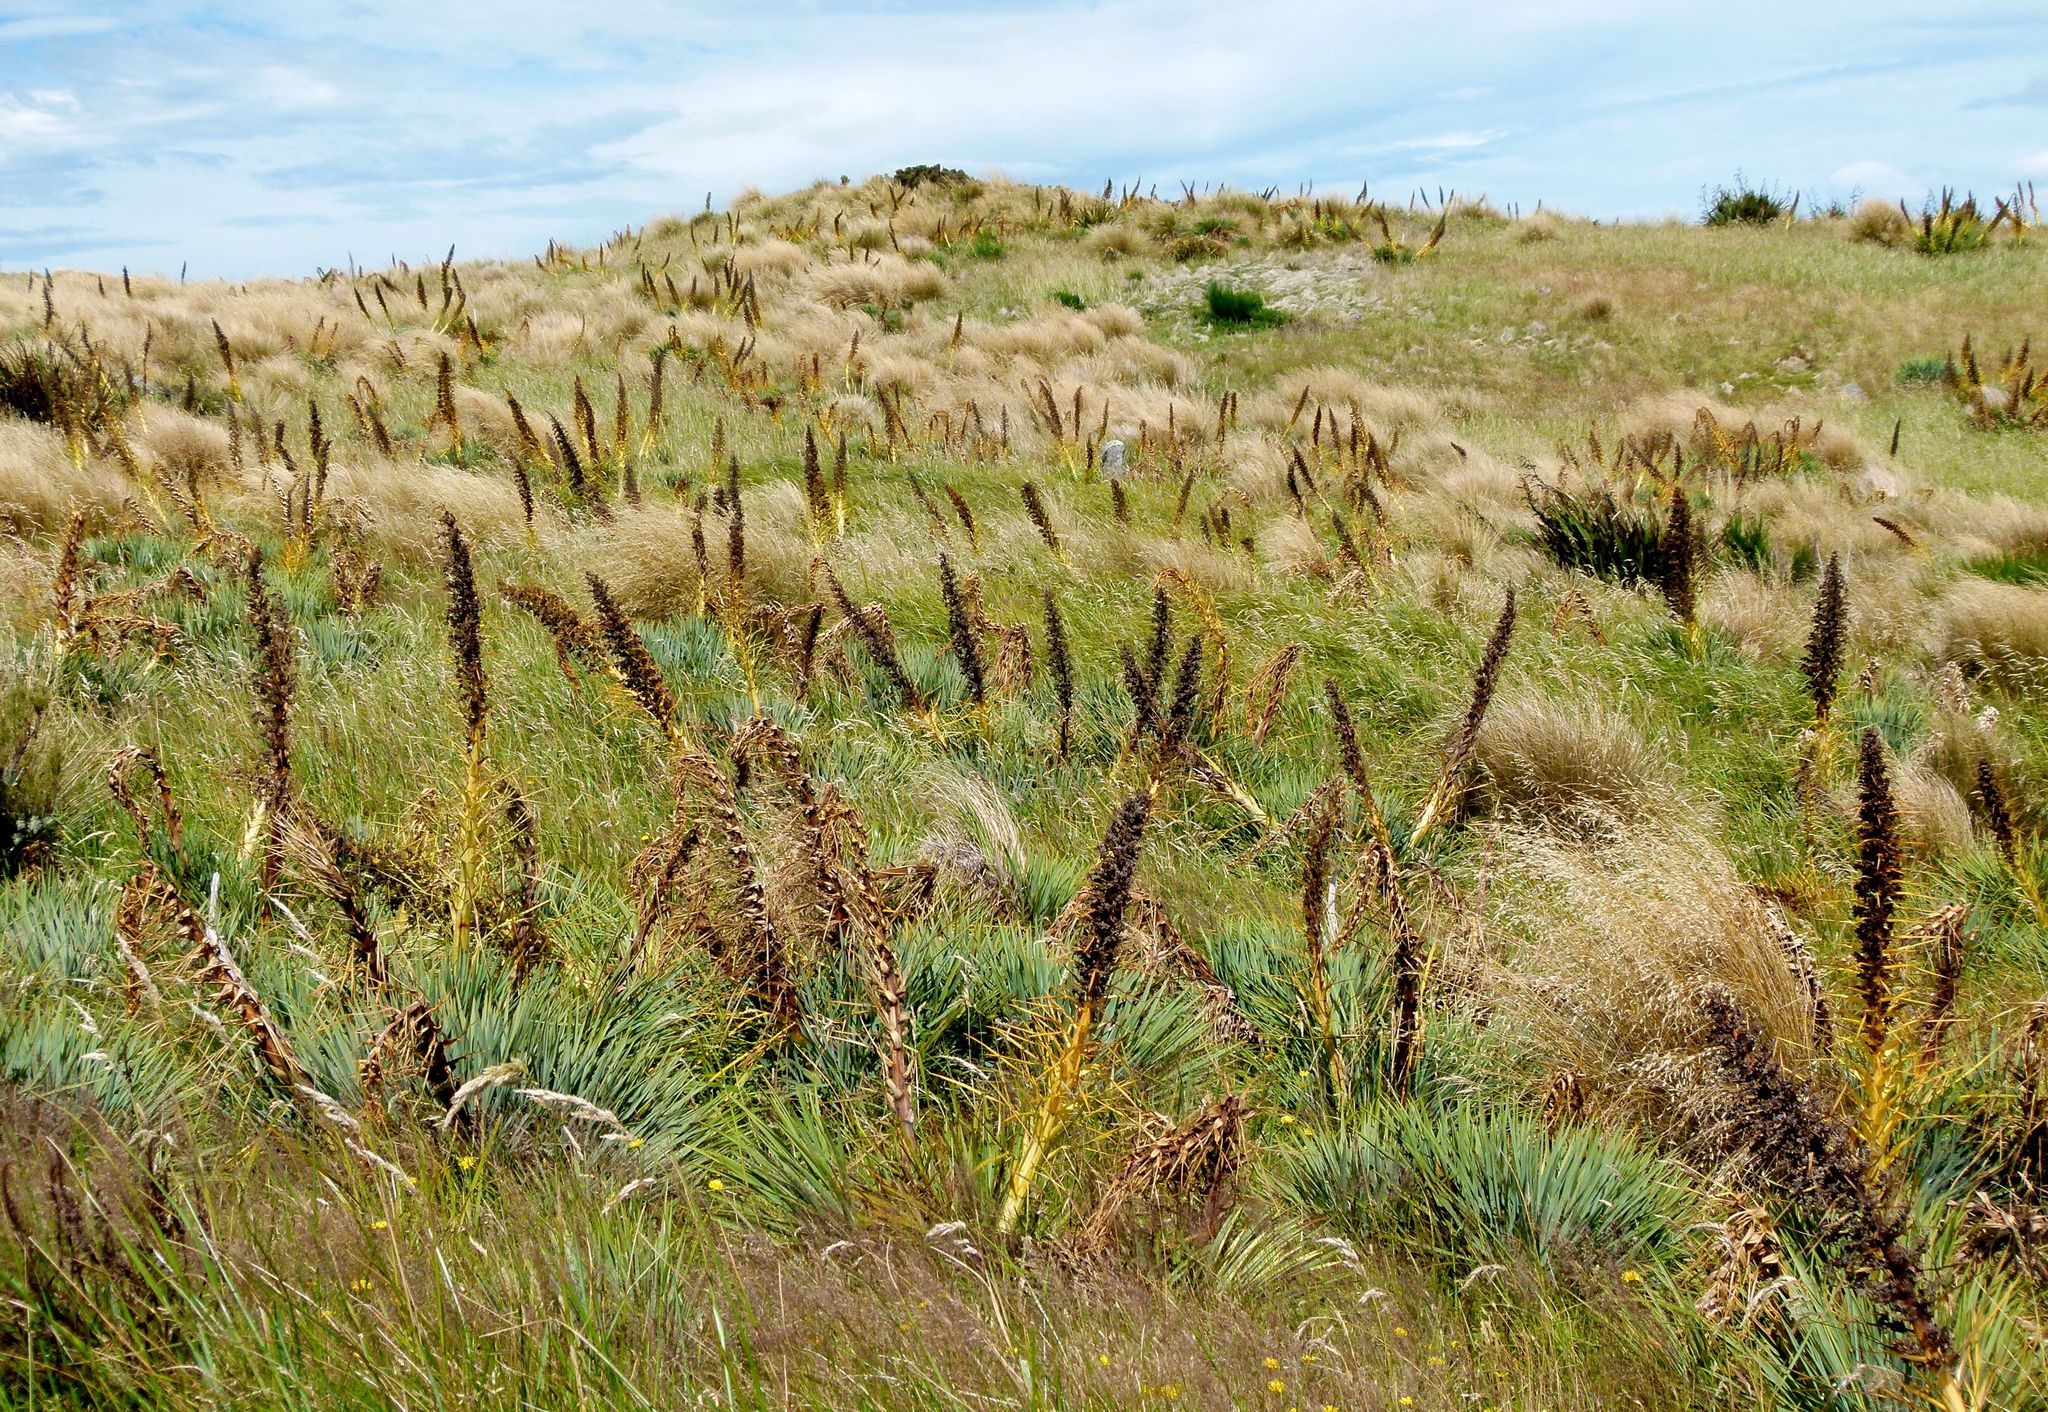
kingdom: Plantae
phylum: Tracheophyta
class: Magnoliopsida
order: Apiales
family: Apiaceae
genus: Aciphylla
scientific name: Aciphylla scott-thomsonii
